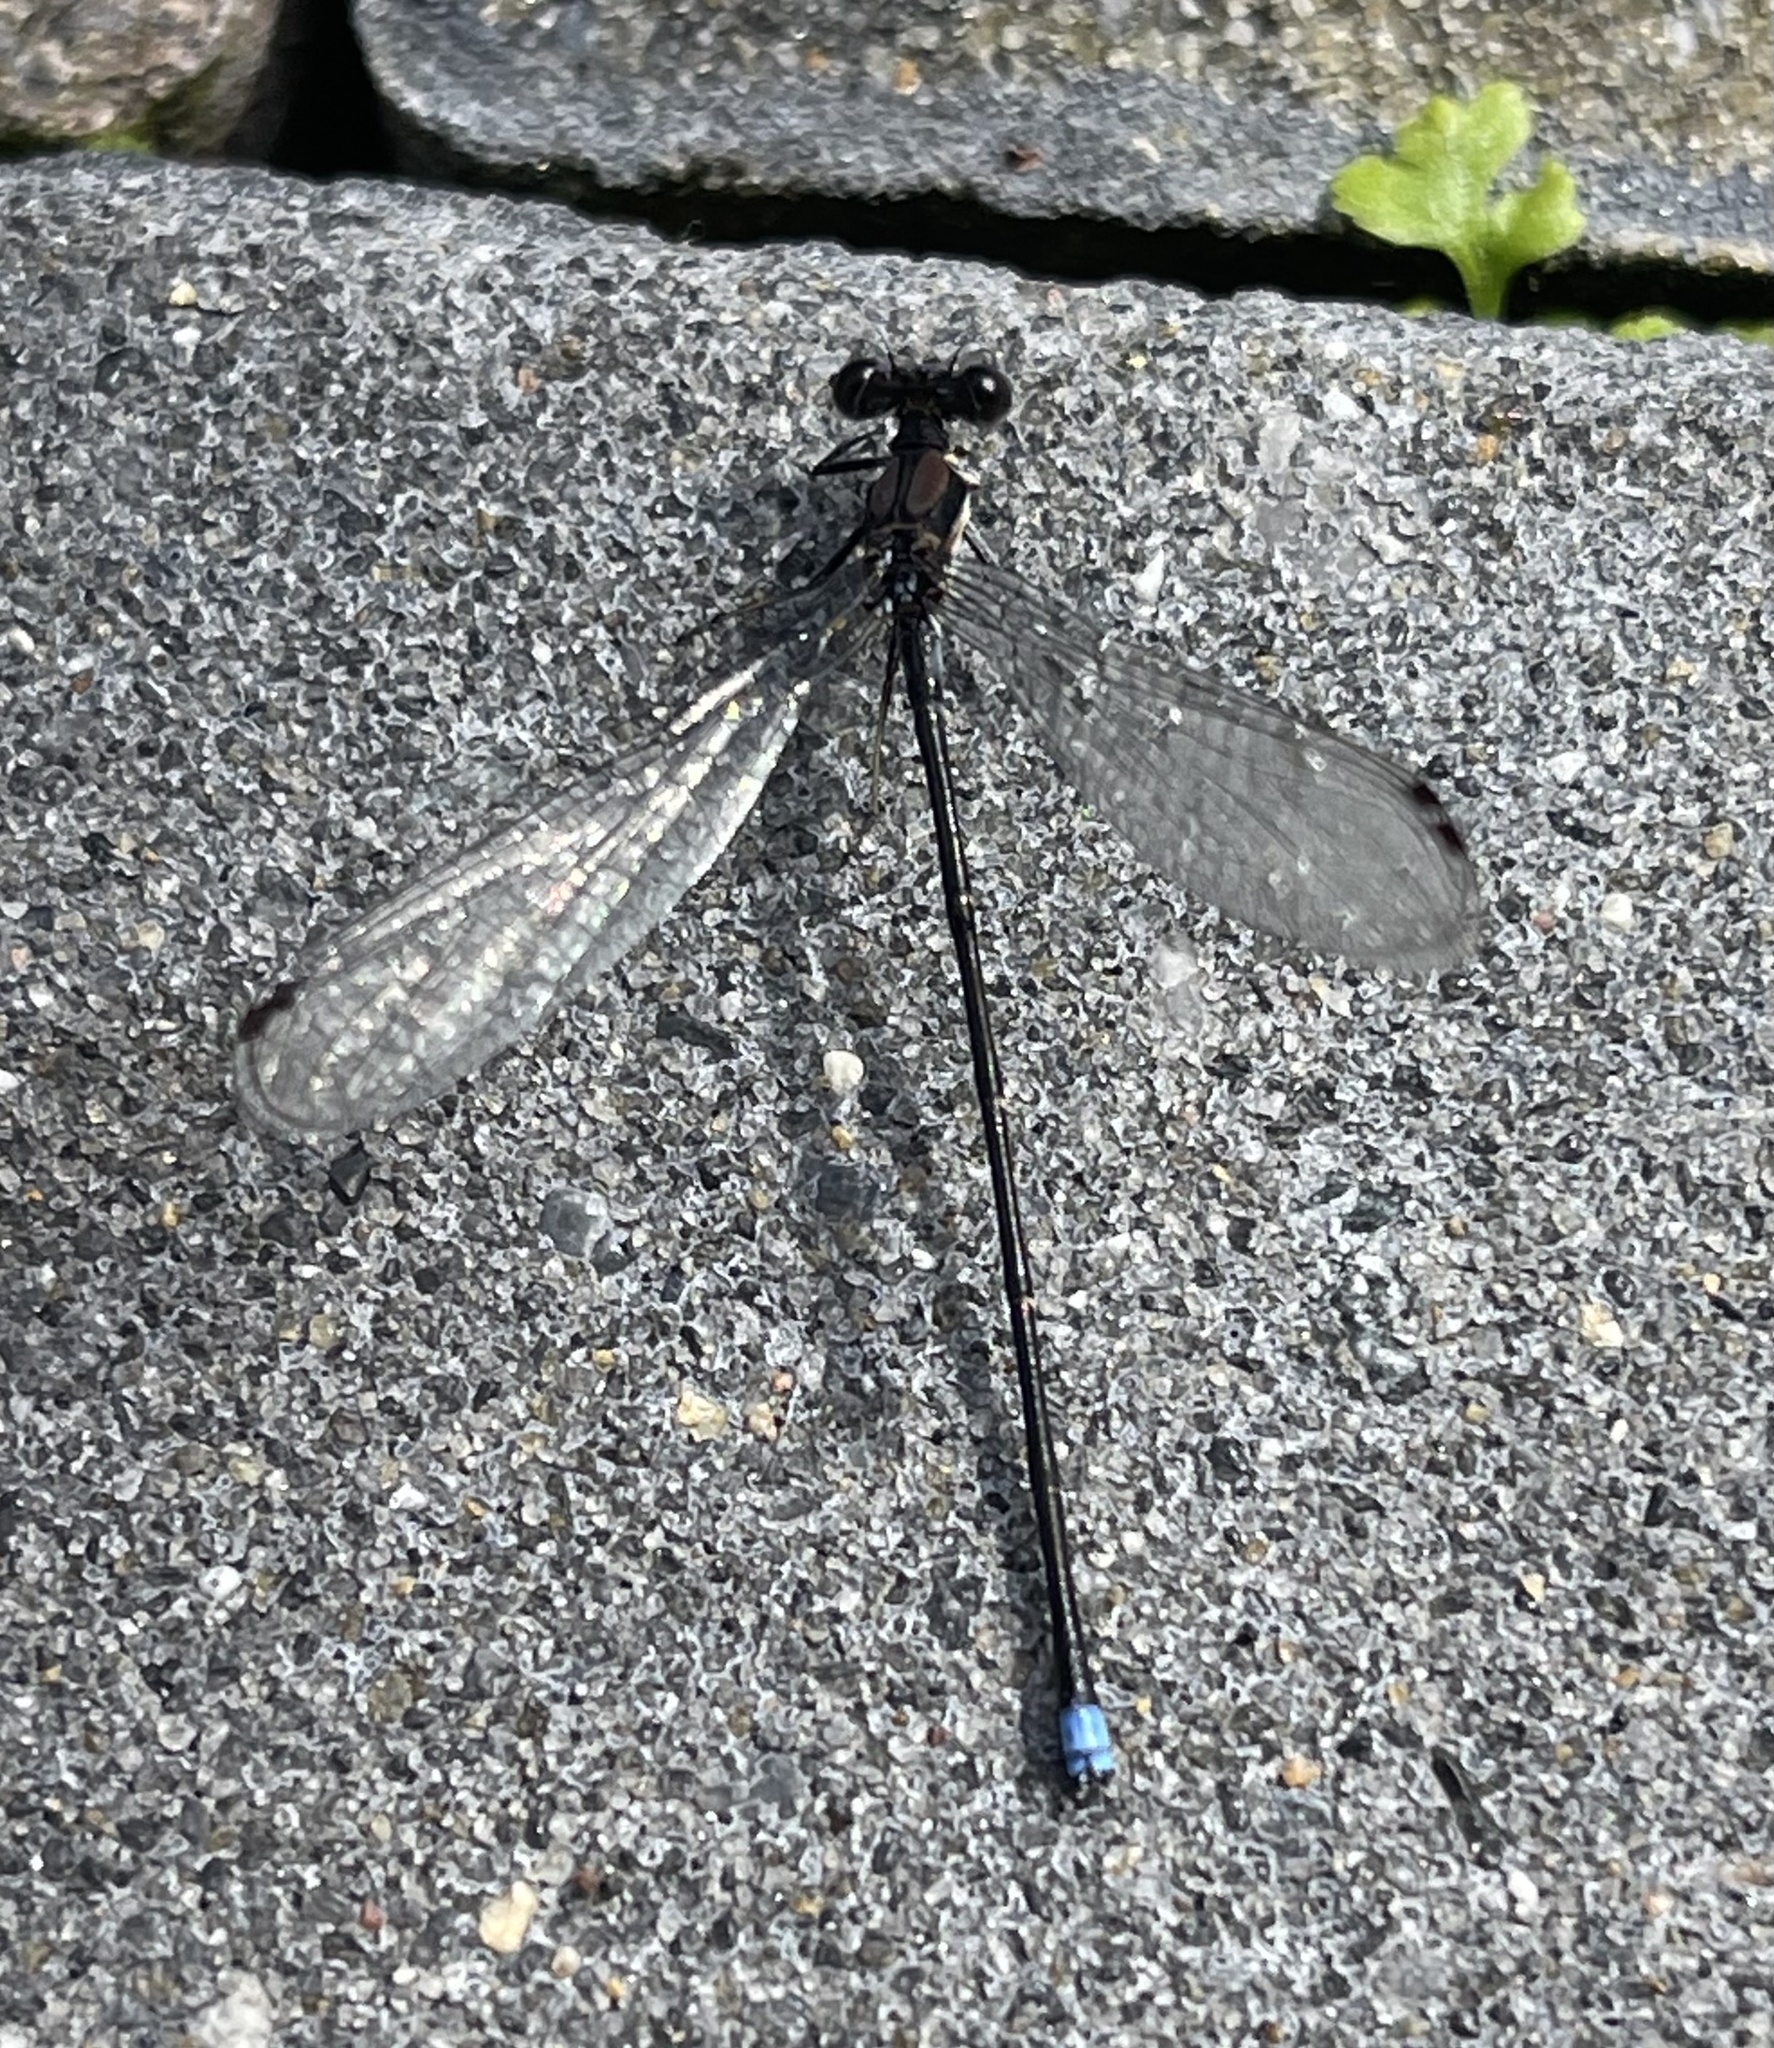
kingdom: Animalia
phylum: Arthropoda
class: Insecta
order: Odonata
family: Coenagrionidae
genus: Argia
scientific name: Argia tibialis
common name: Blue-tipped dancer
